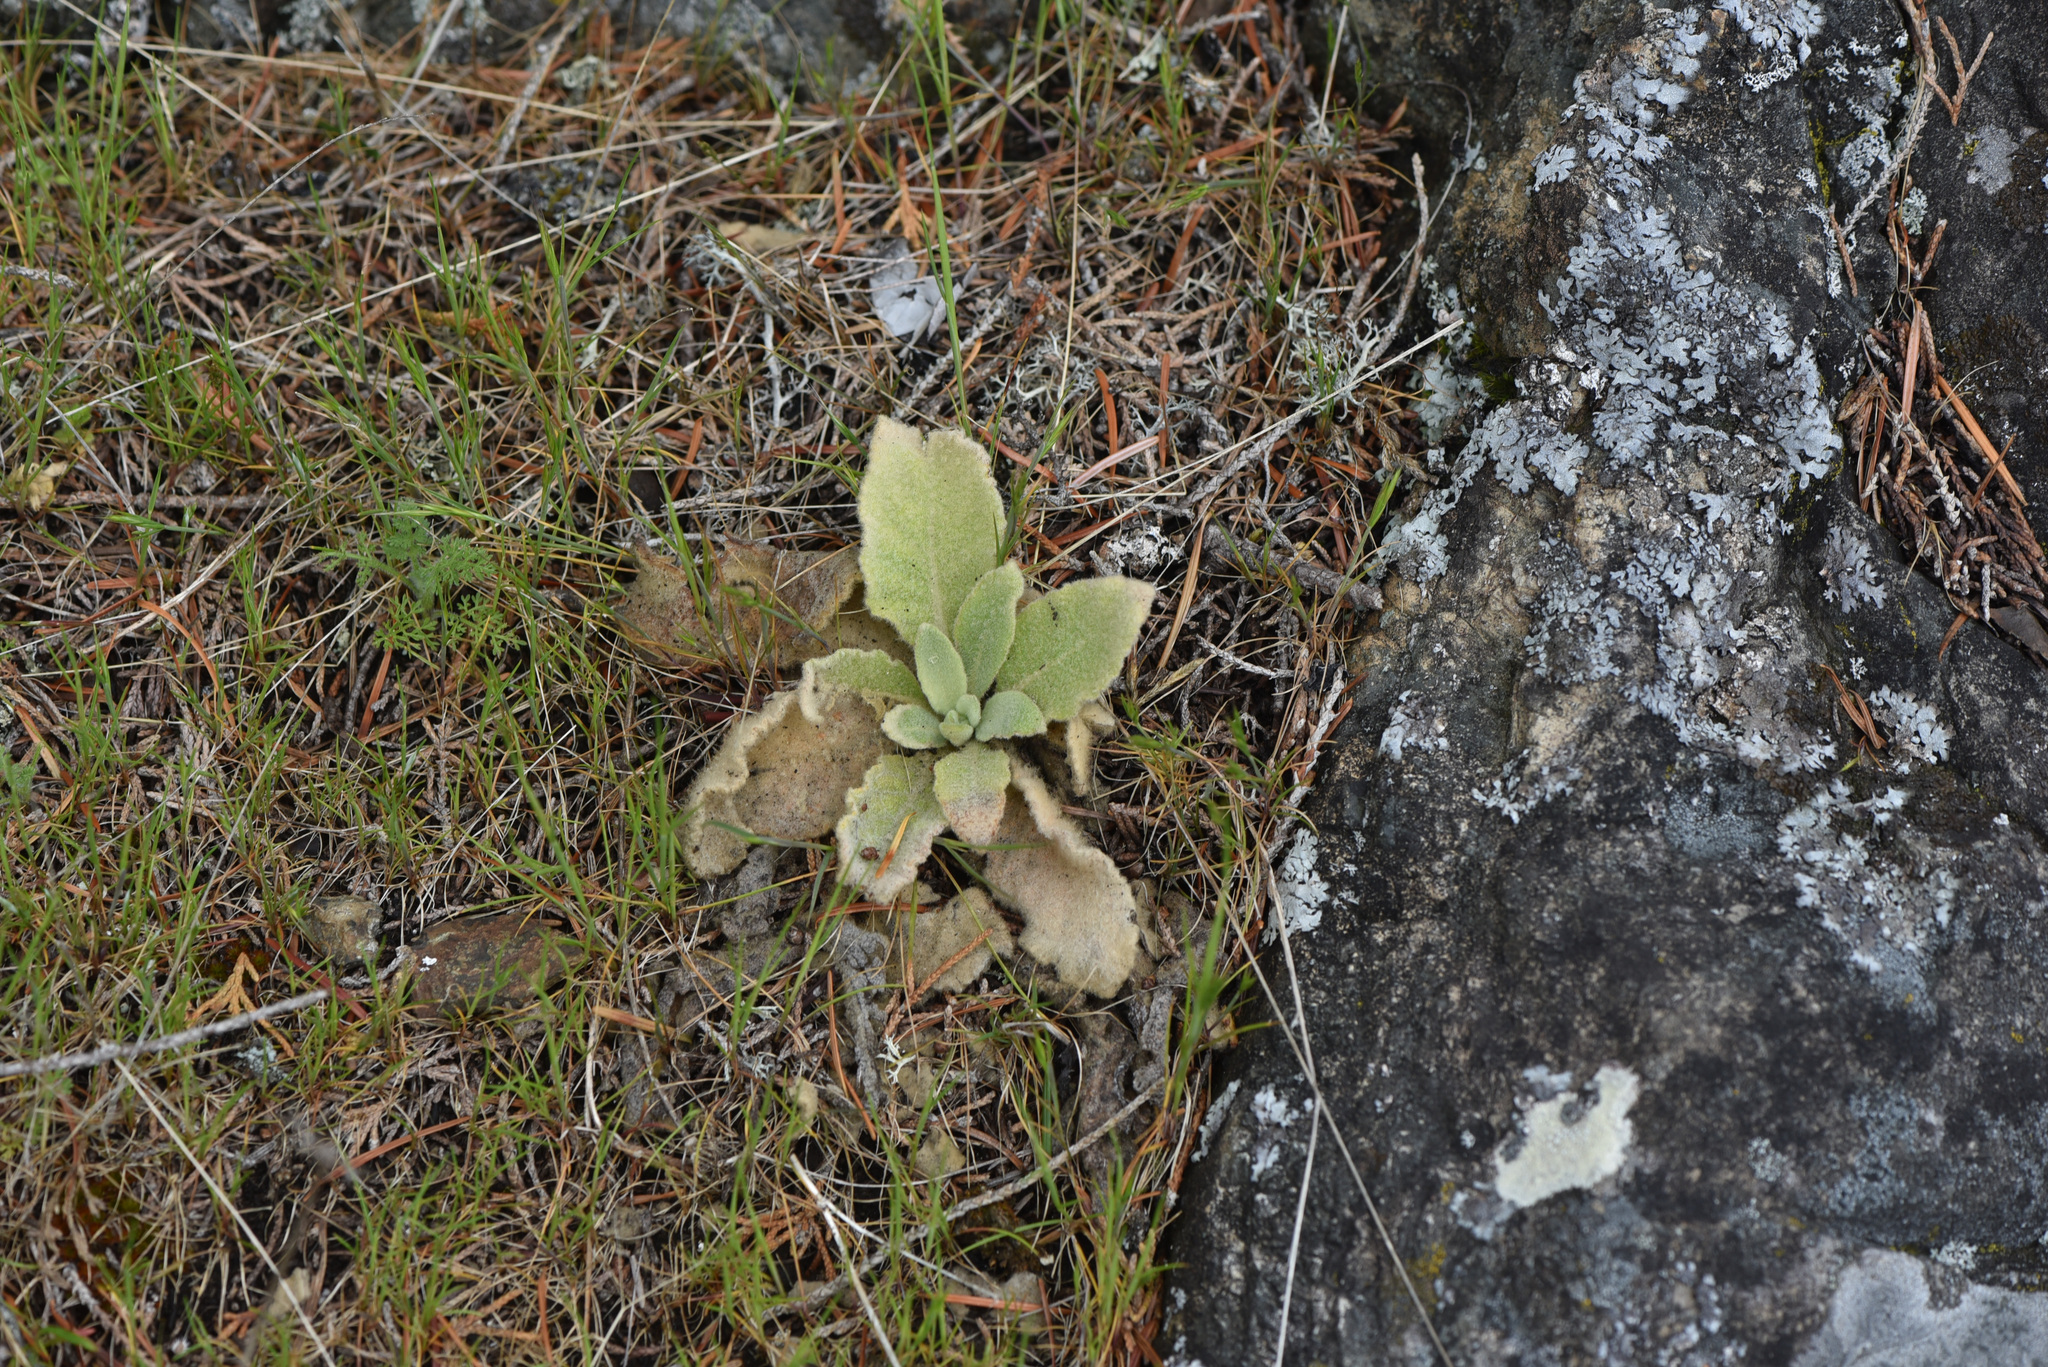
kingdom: Plantae
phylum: Tracheophyta
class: Magnoliopsida
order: Lamiales
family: Plantaginaceae
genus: Digitalis
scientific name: Digitalis purpurea
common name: Foxglove
